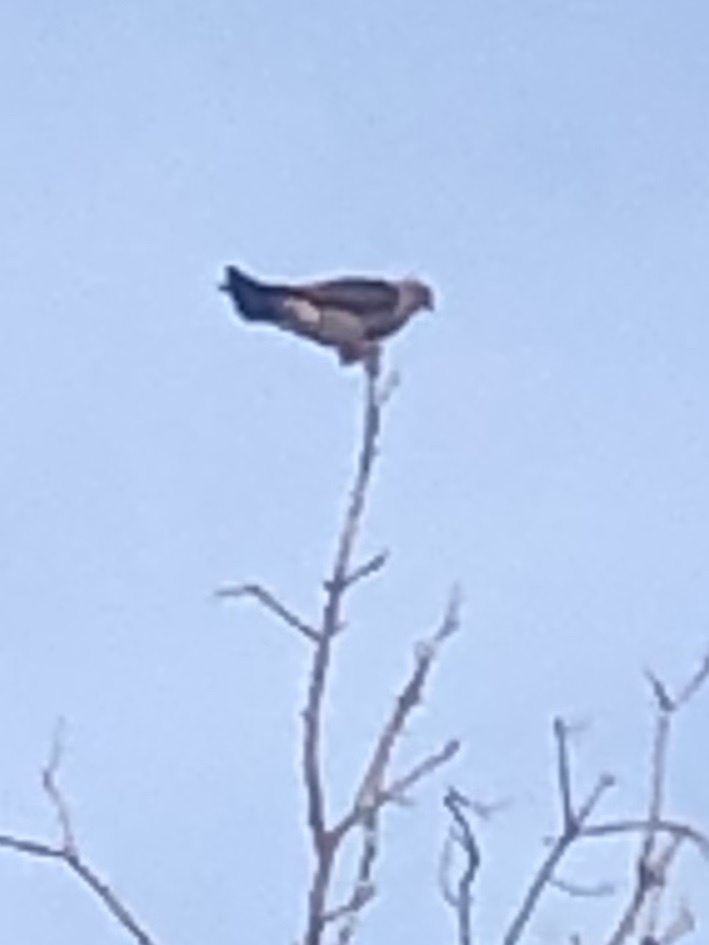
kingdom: Animalia
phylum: Chordata
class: Aves
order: Accipitriformes
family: Accipitridae
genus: Ictinia
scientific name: Ictinia mississippiensis
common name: Mississippi kite
